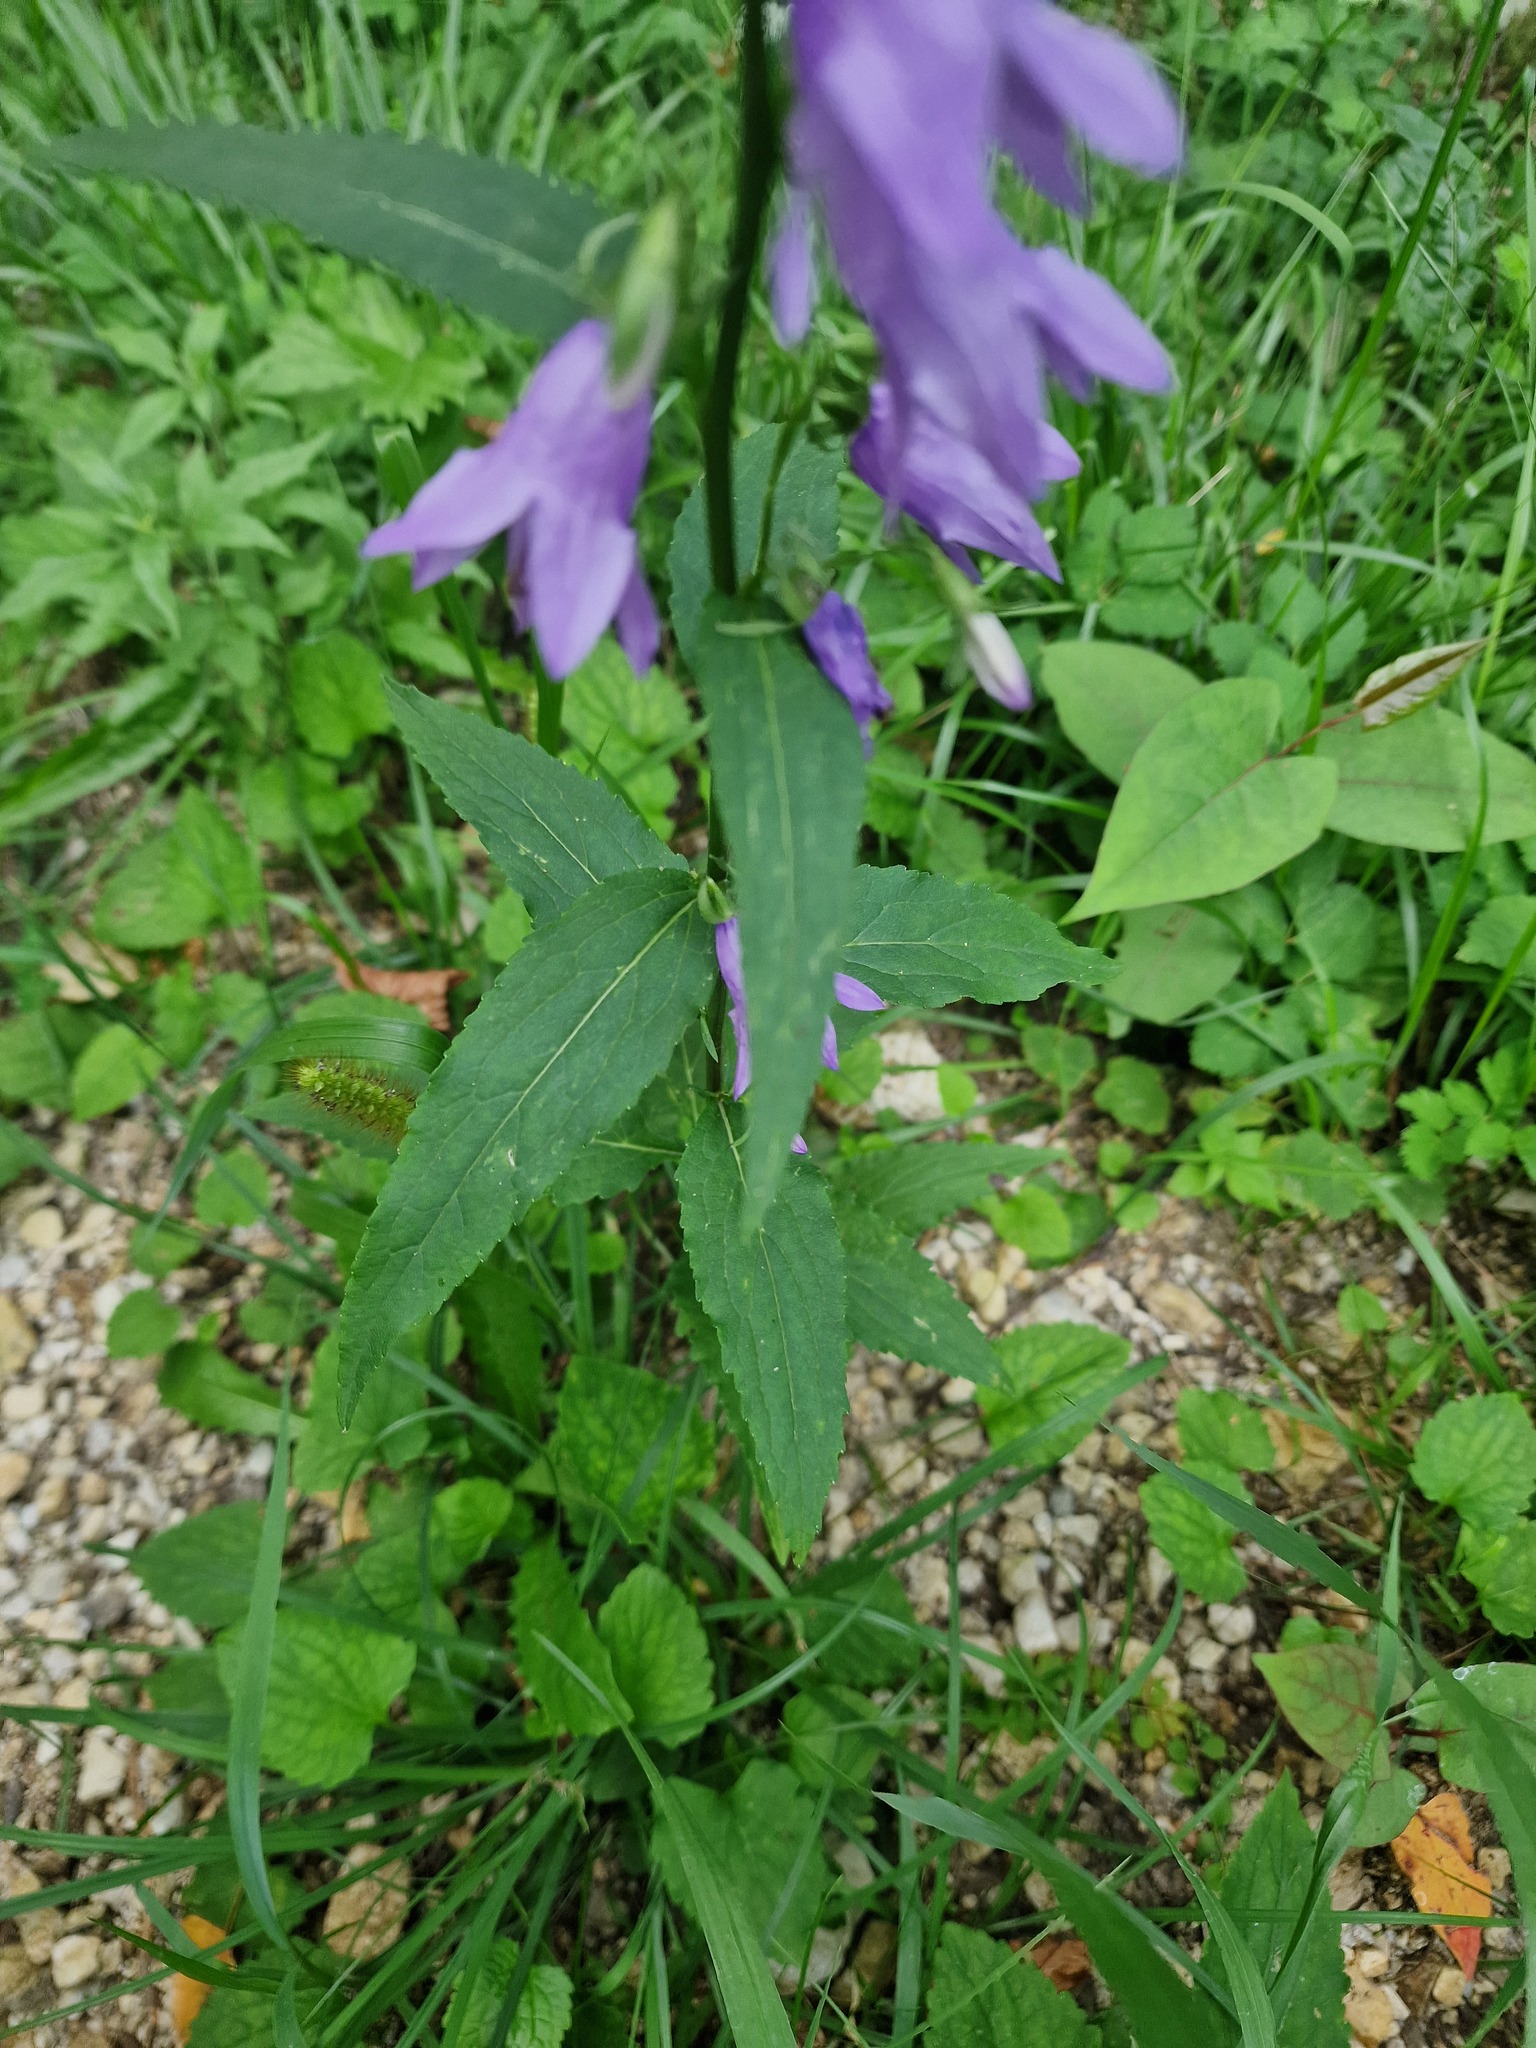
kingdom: Plantae
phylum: Tracheophyta
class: Magnoliopsida
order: Asterales
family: Campanulaceae
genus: Campanula
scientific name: Campanula rapunculoides
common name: Creeping bellflower
